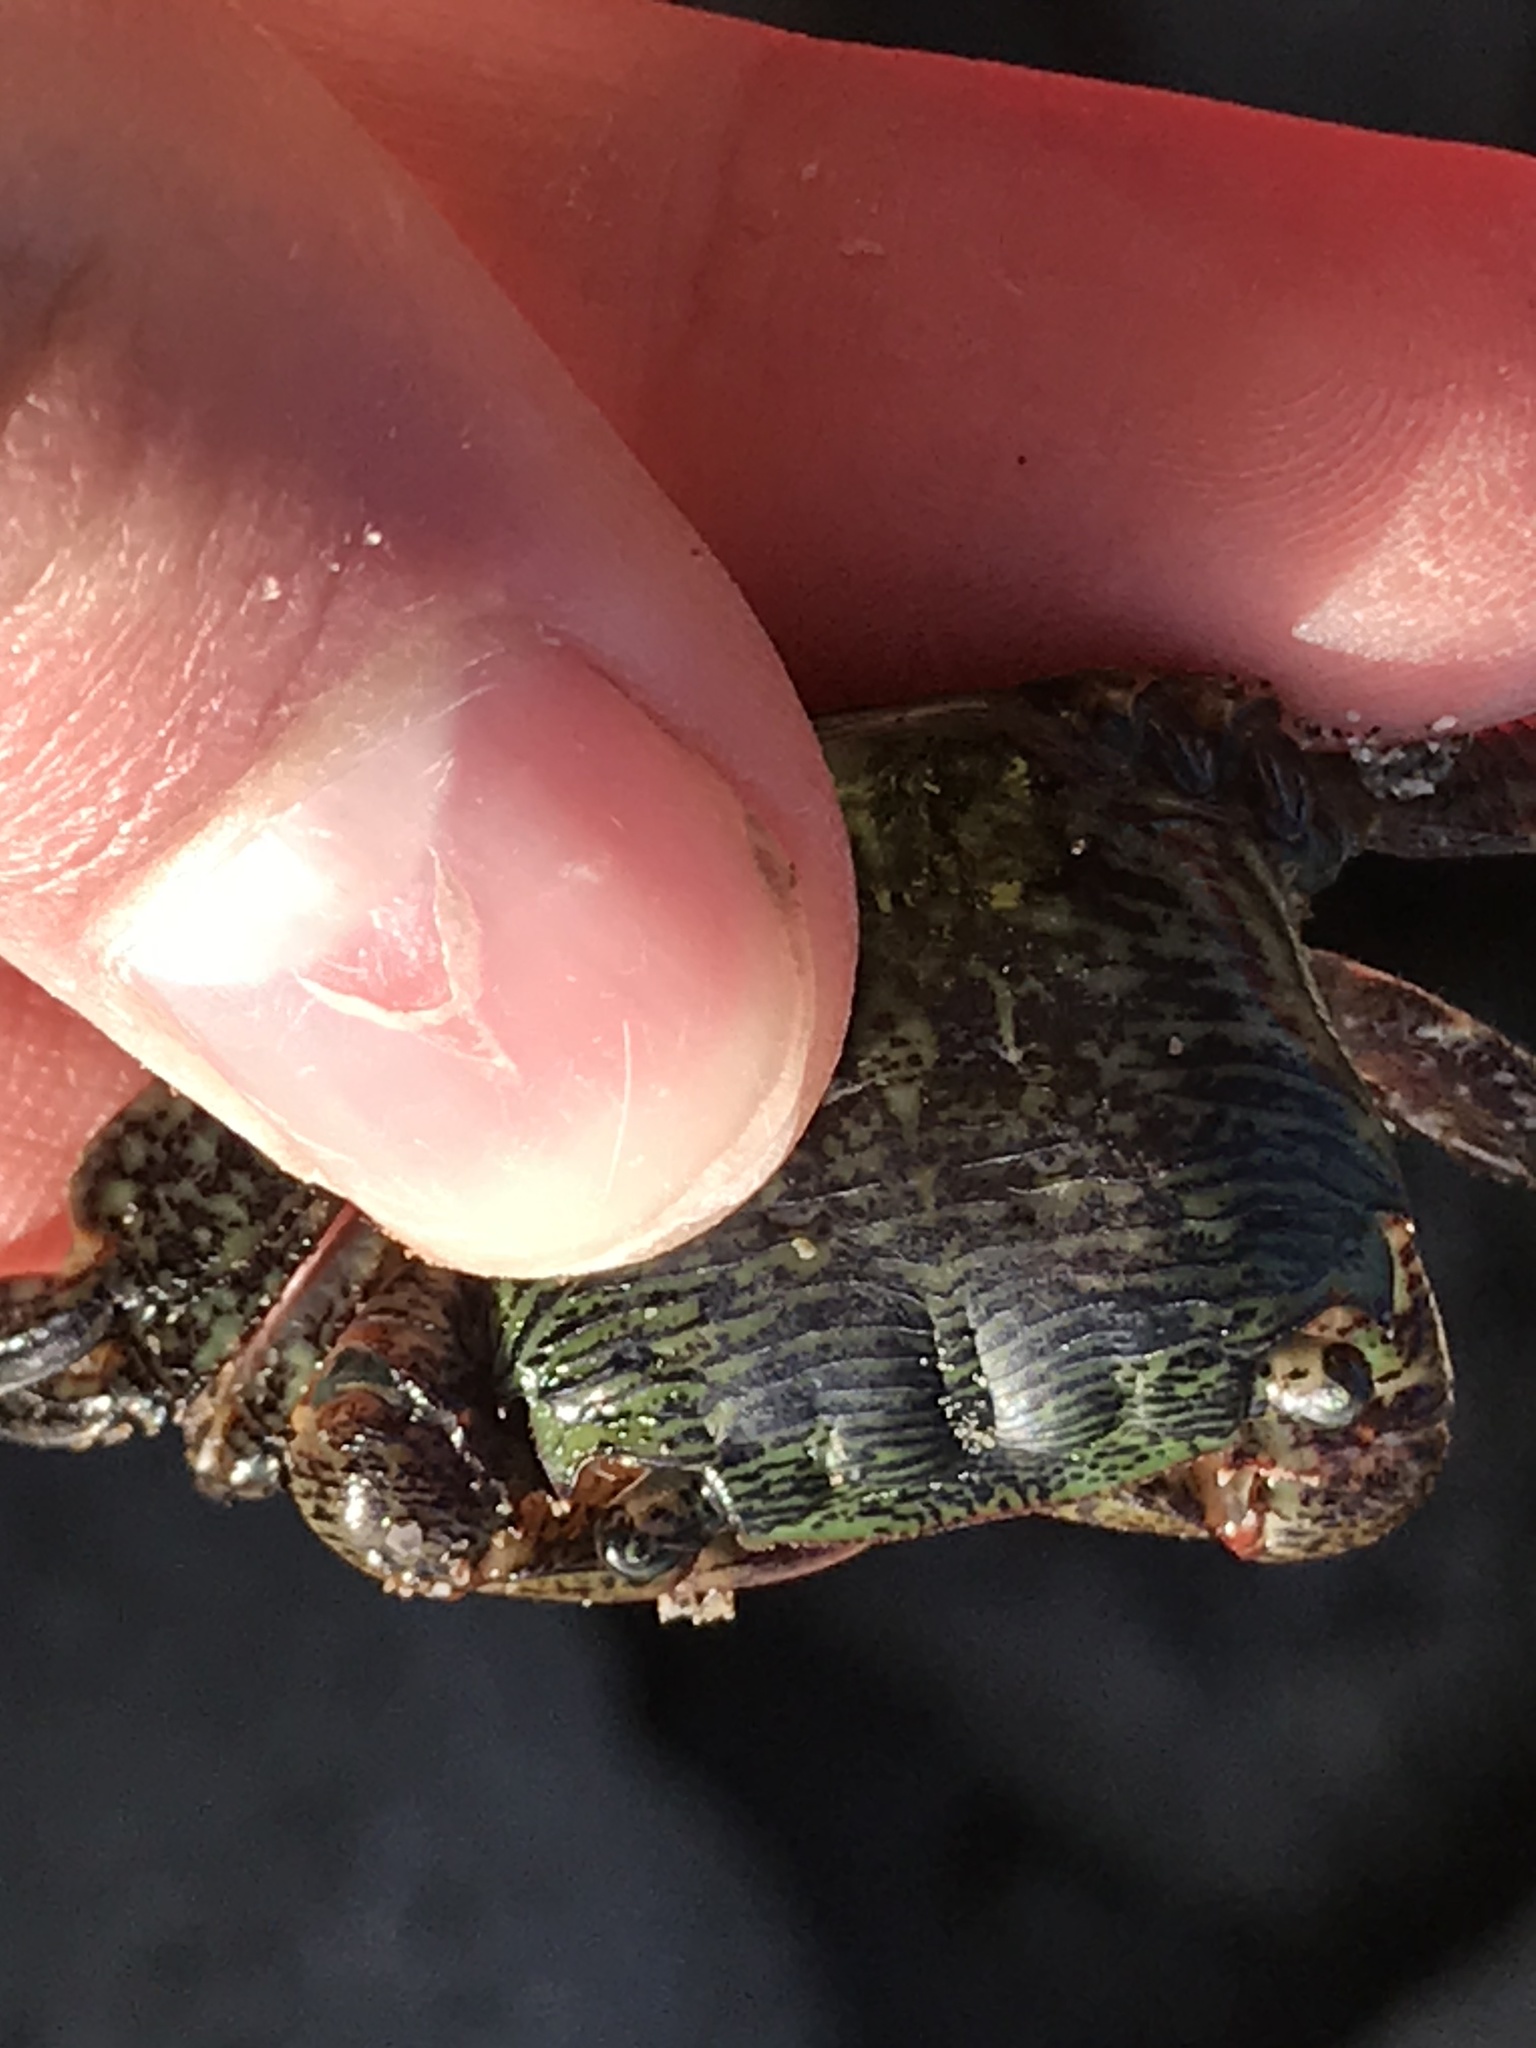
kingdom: Animalia
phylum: Arthropoda
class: Malacostraca
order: Decapoda
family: Grapsidae
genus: Pachygrapsus
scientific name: Pachygrapsus crassipes
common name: Striped shore crab
